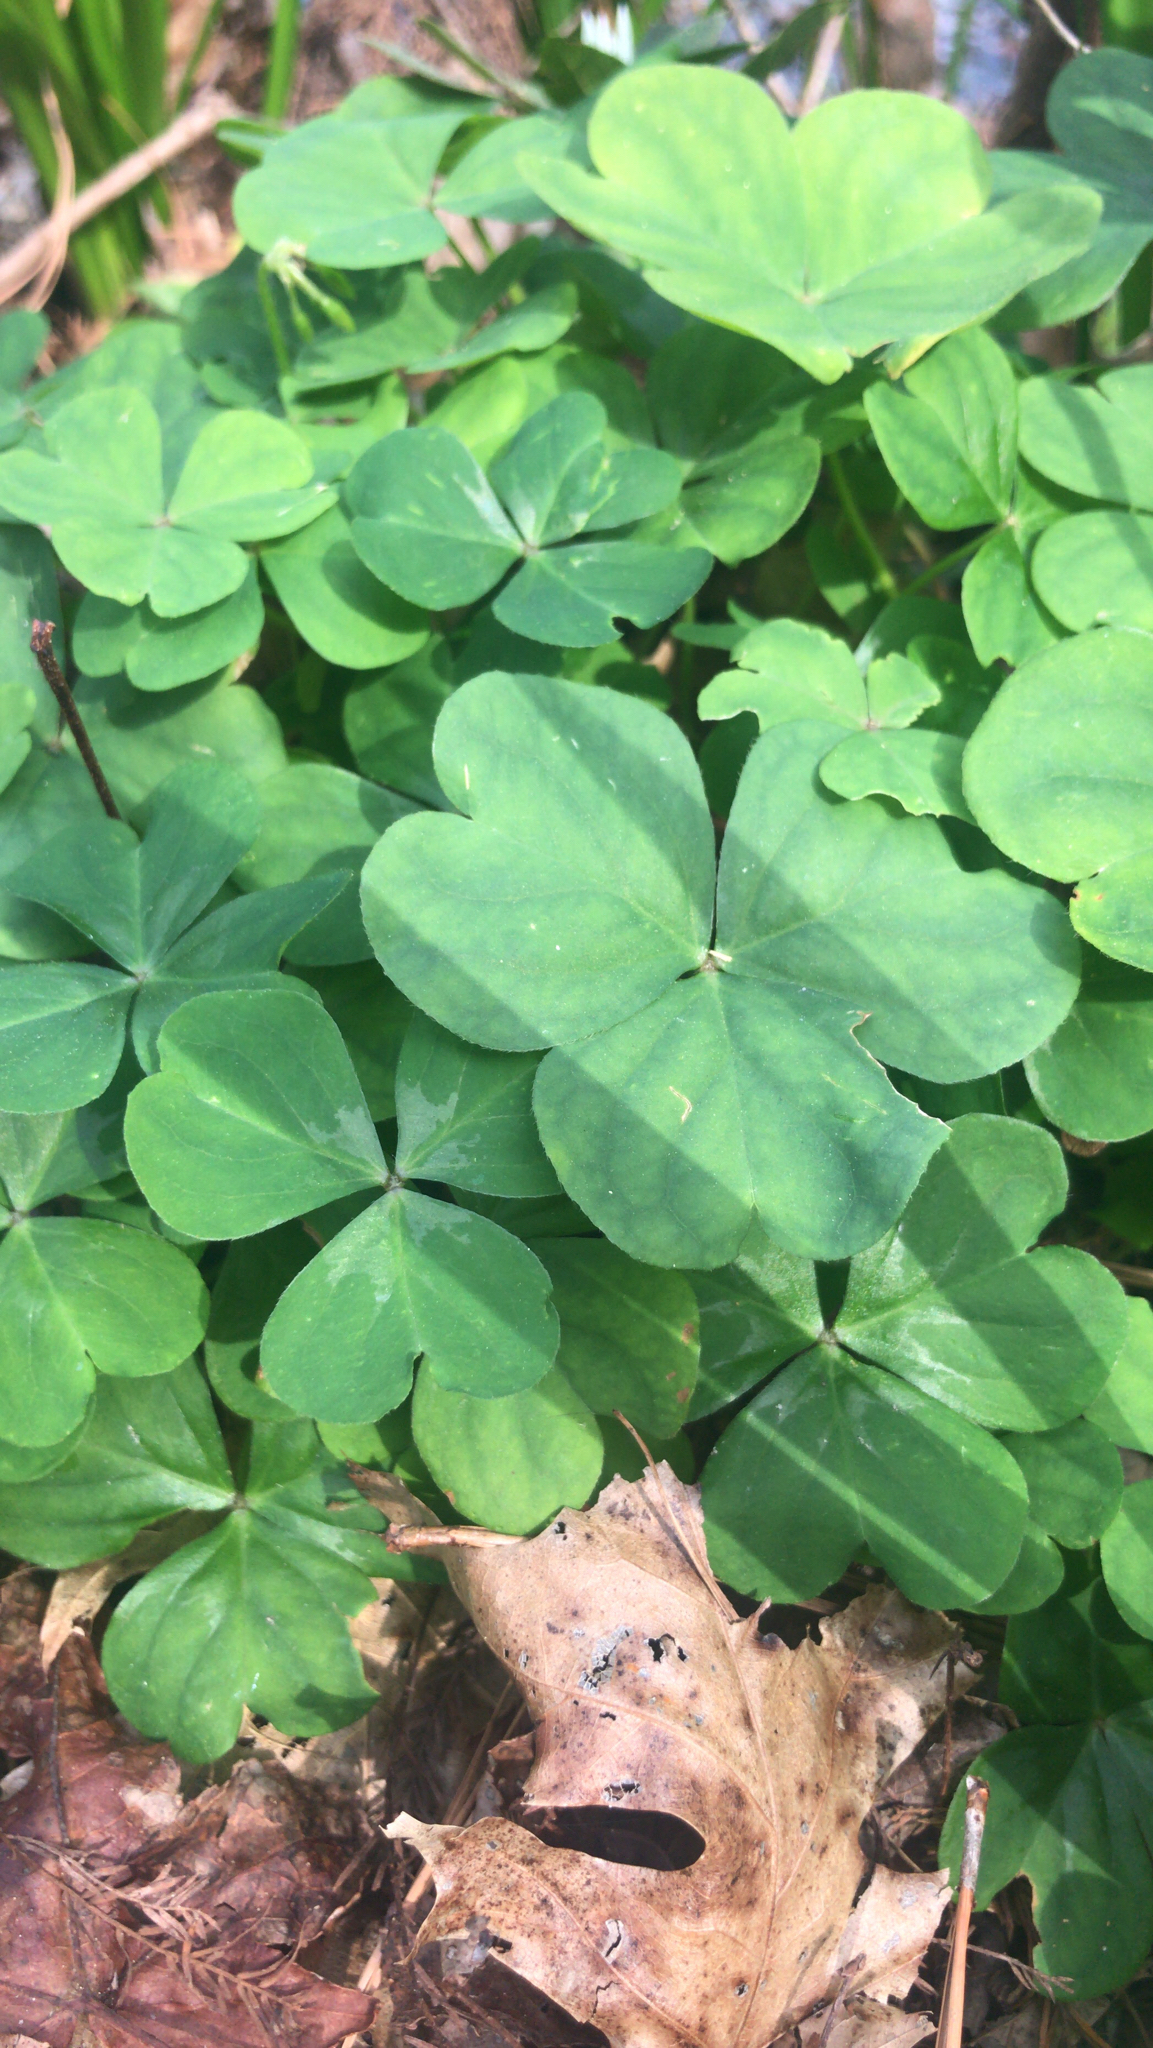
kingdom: Plantae
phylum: Tracheophyta
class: Magnoliopsida
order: Oxalidales
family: Oxalidaceae
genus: Oxalis
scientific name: Oxalis debilis
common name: Large-flowered pink-sorrel
